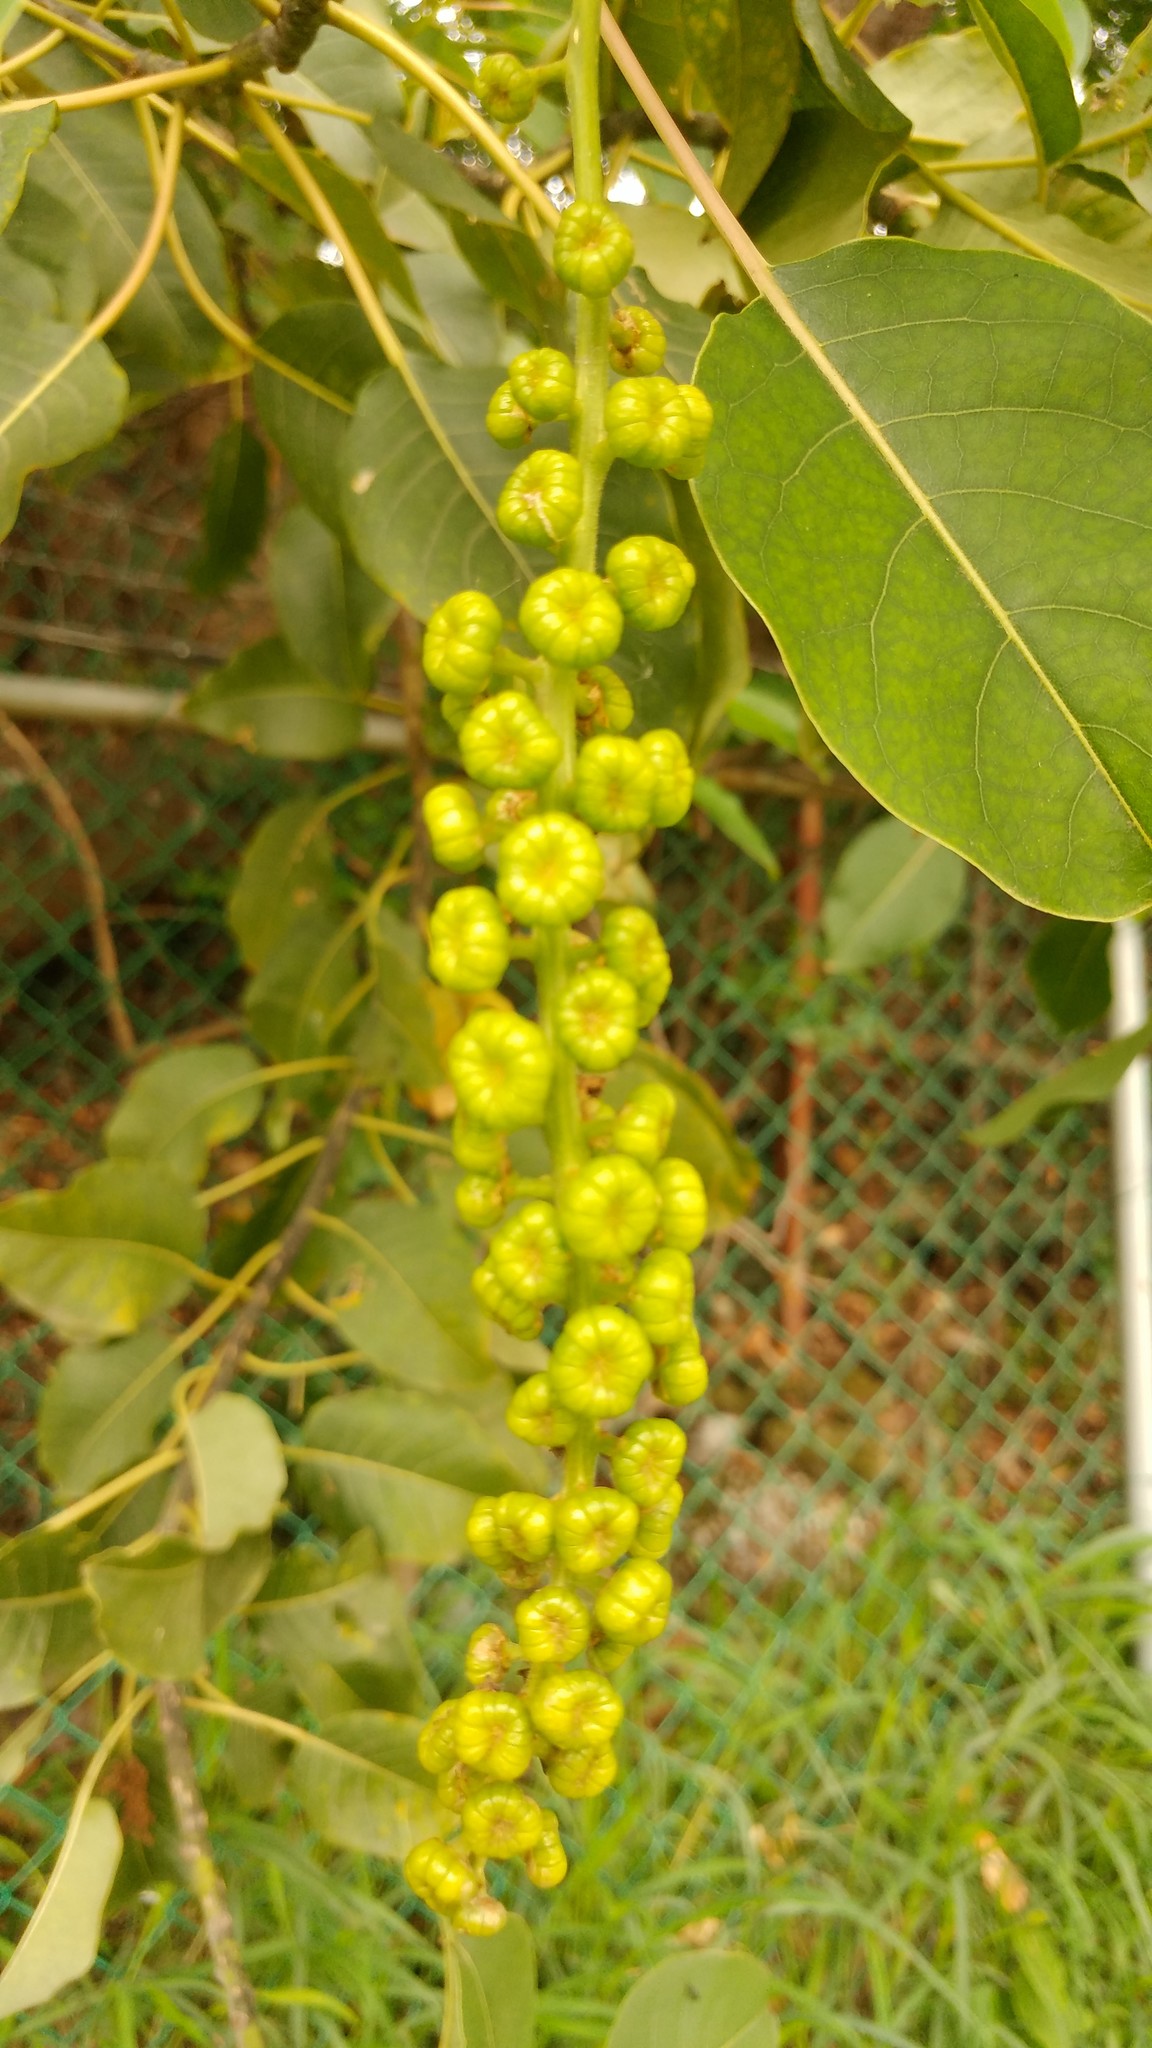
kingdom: Plantae
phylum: Tracheophyta
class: Magnoliopsida
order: Caryophyllales
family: Phytolaccaceae
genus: Phytolacca
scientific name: Phytolacca americana
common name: American pokeweed
